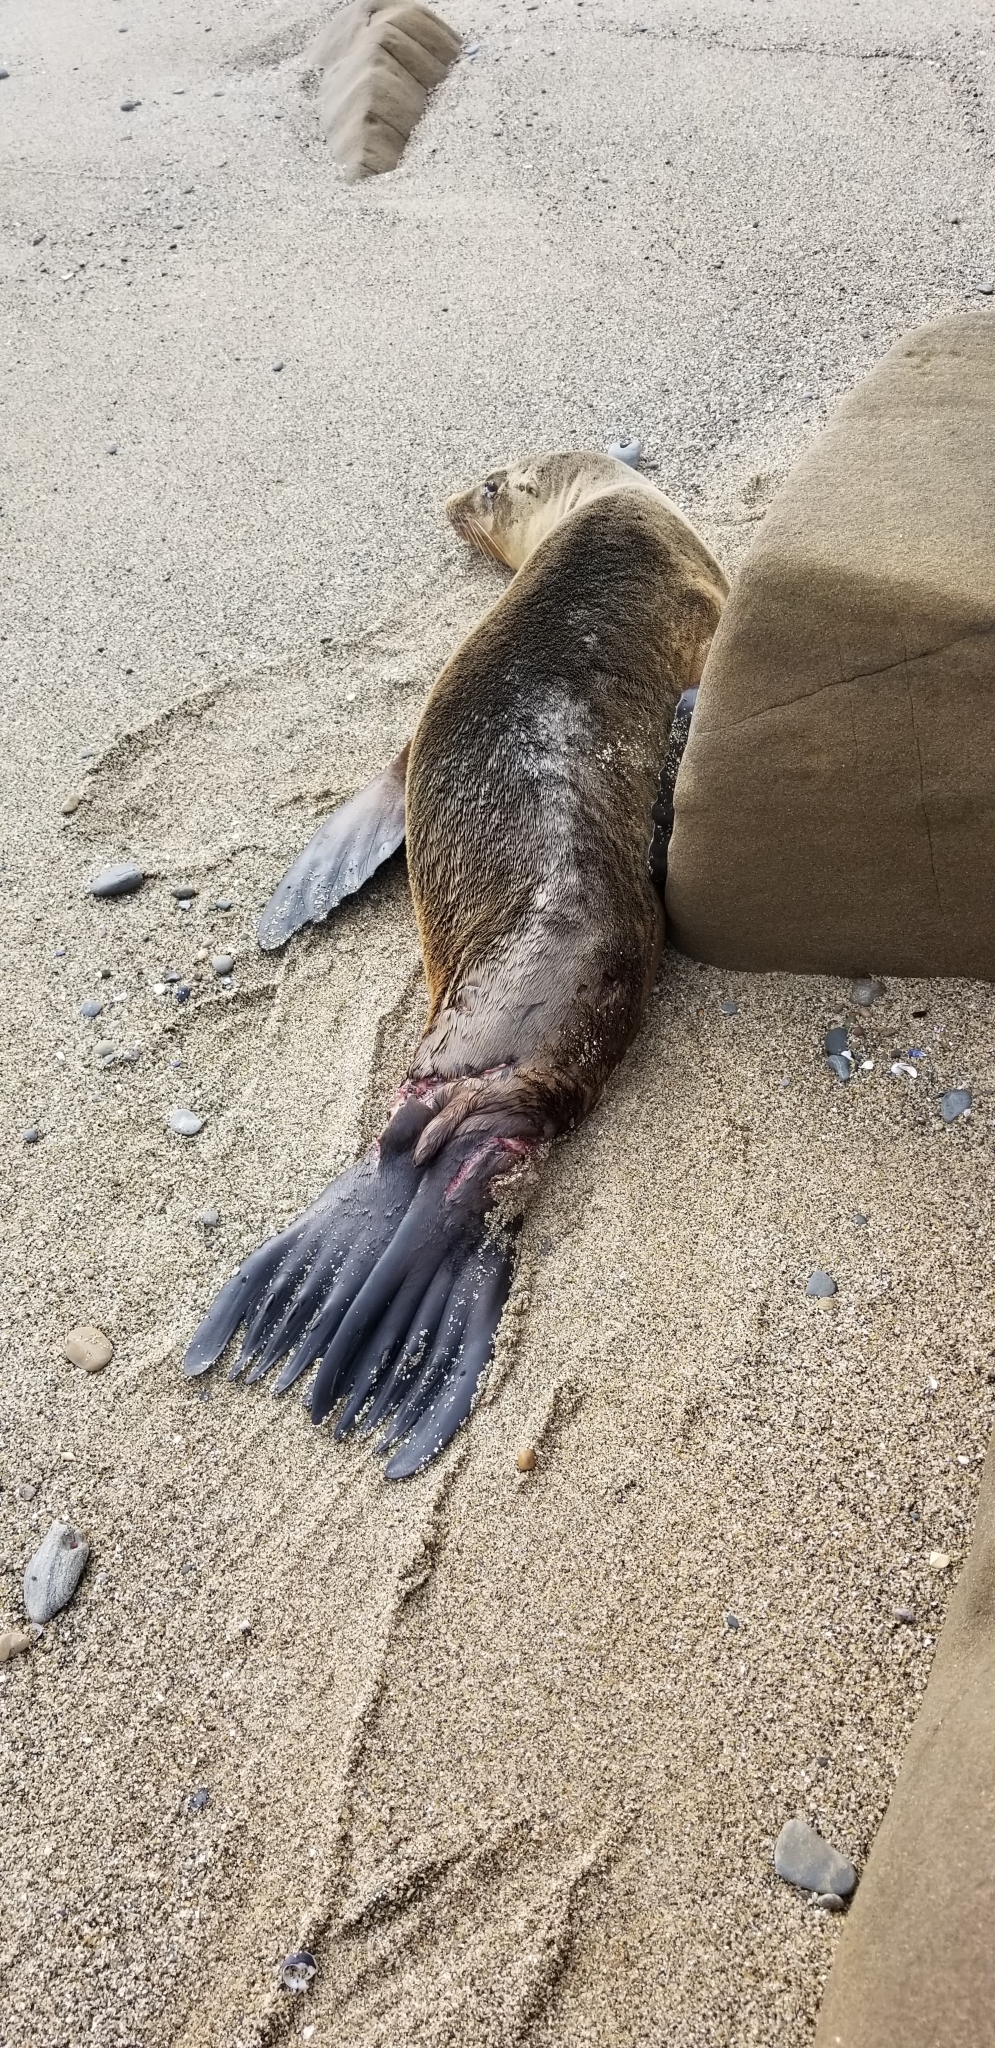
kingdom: Animalia
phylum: Chordata
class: Mammalia
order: Carnivora
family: Otariidae
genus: Zalophus
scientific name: Zalophus californianus
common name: California sea lion
